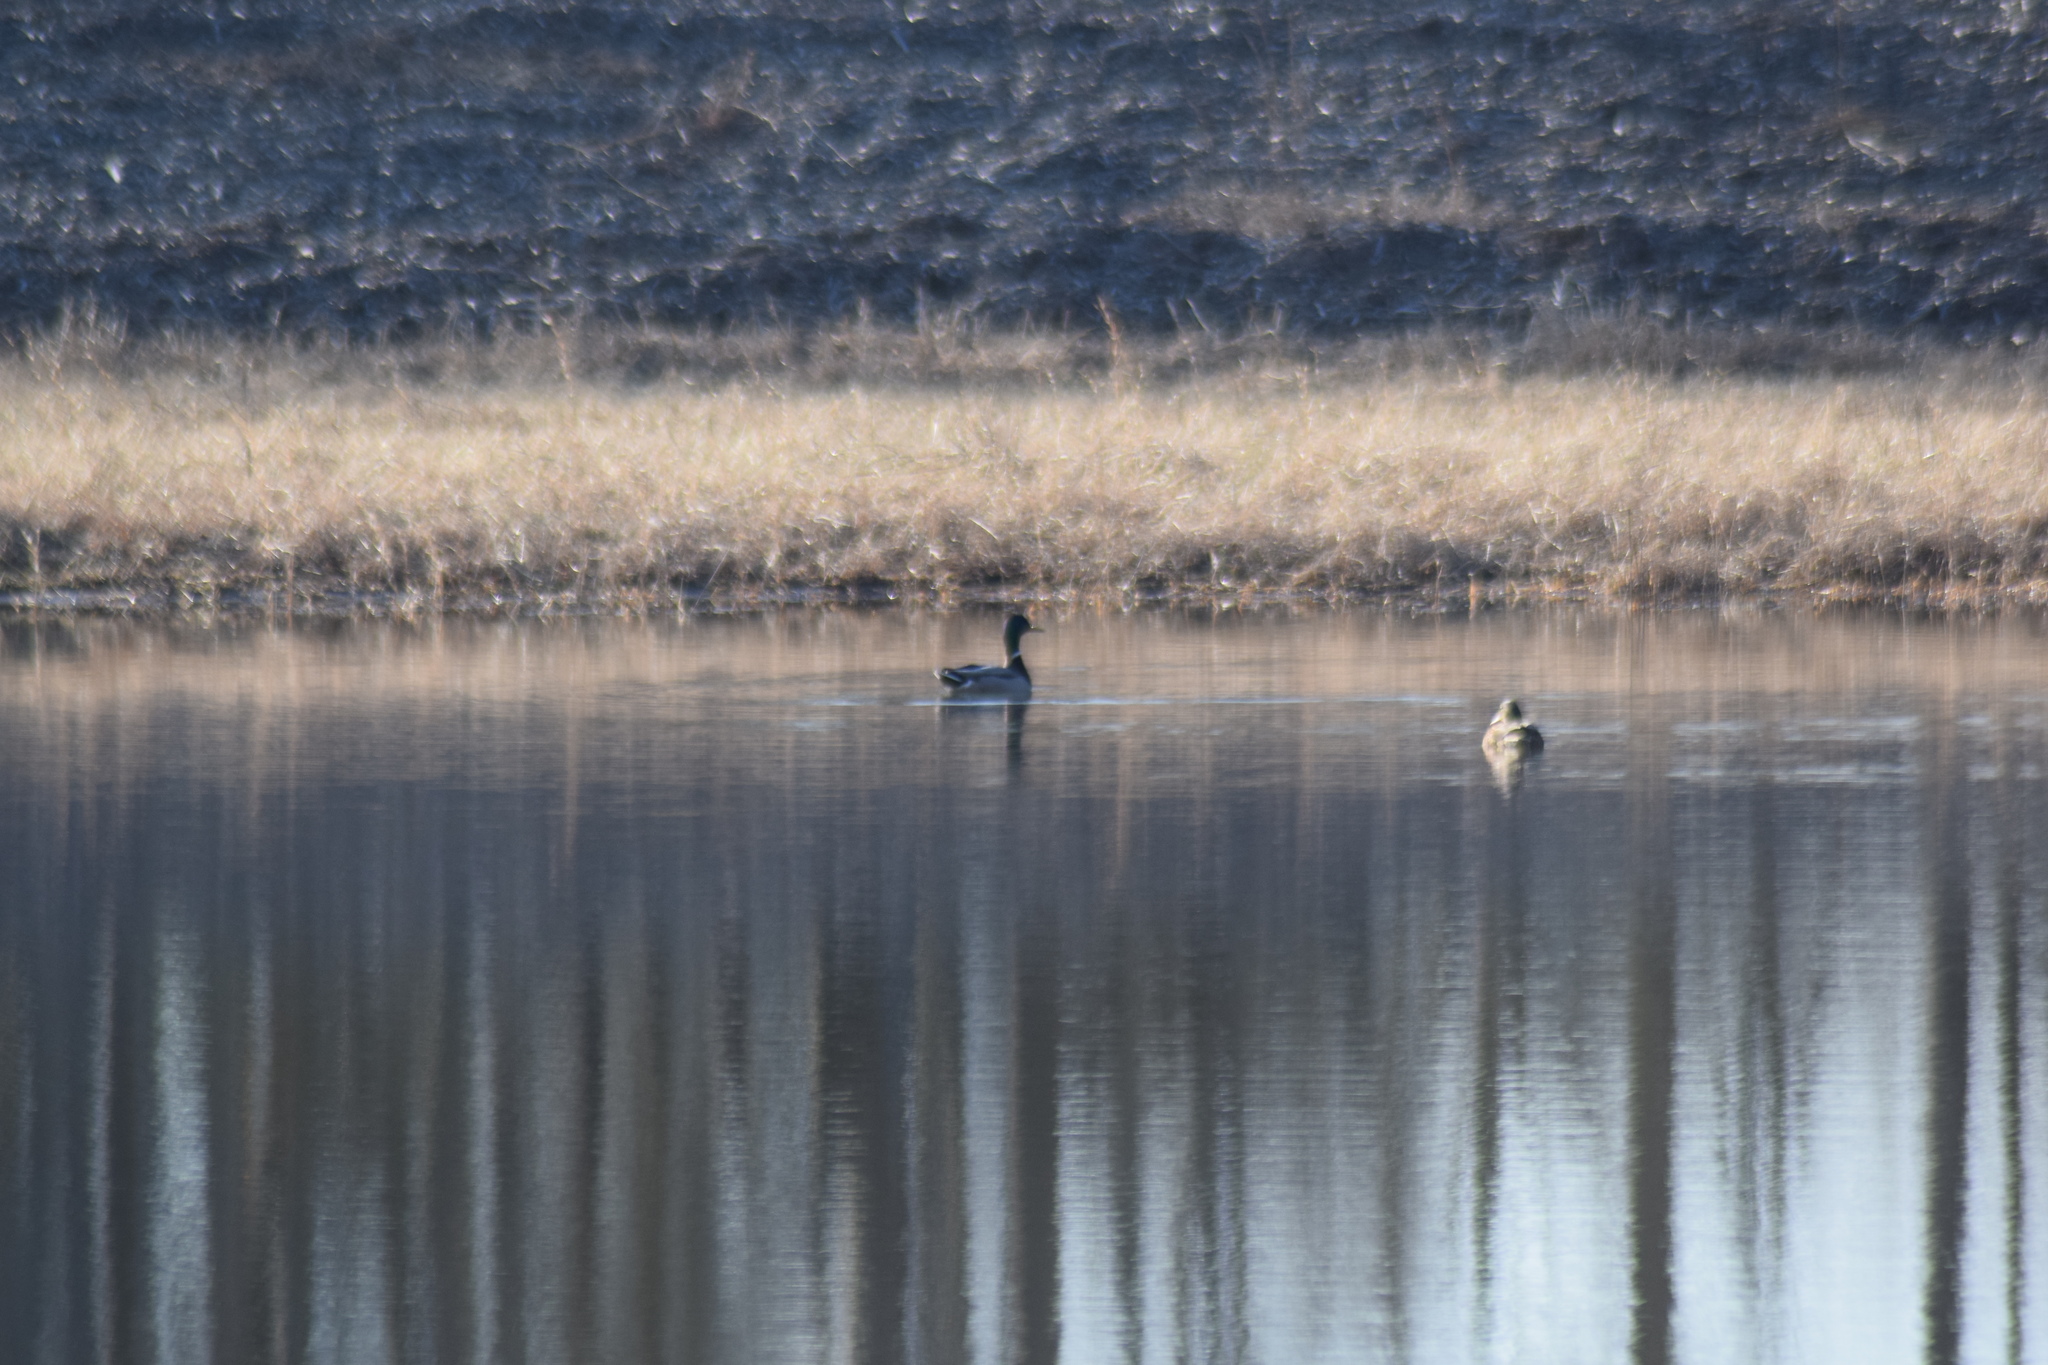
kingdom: Animalia
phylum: Chordata
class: Aves
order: Anseriformes
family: Anatidae
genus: Anas
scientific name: Anas platyrhynchos
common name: Mallard
